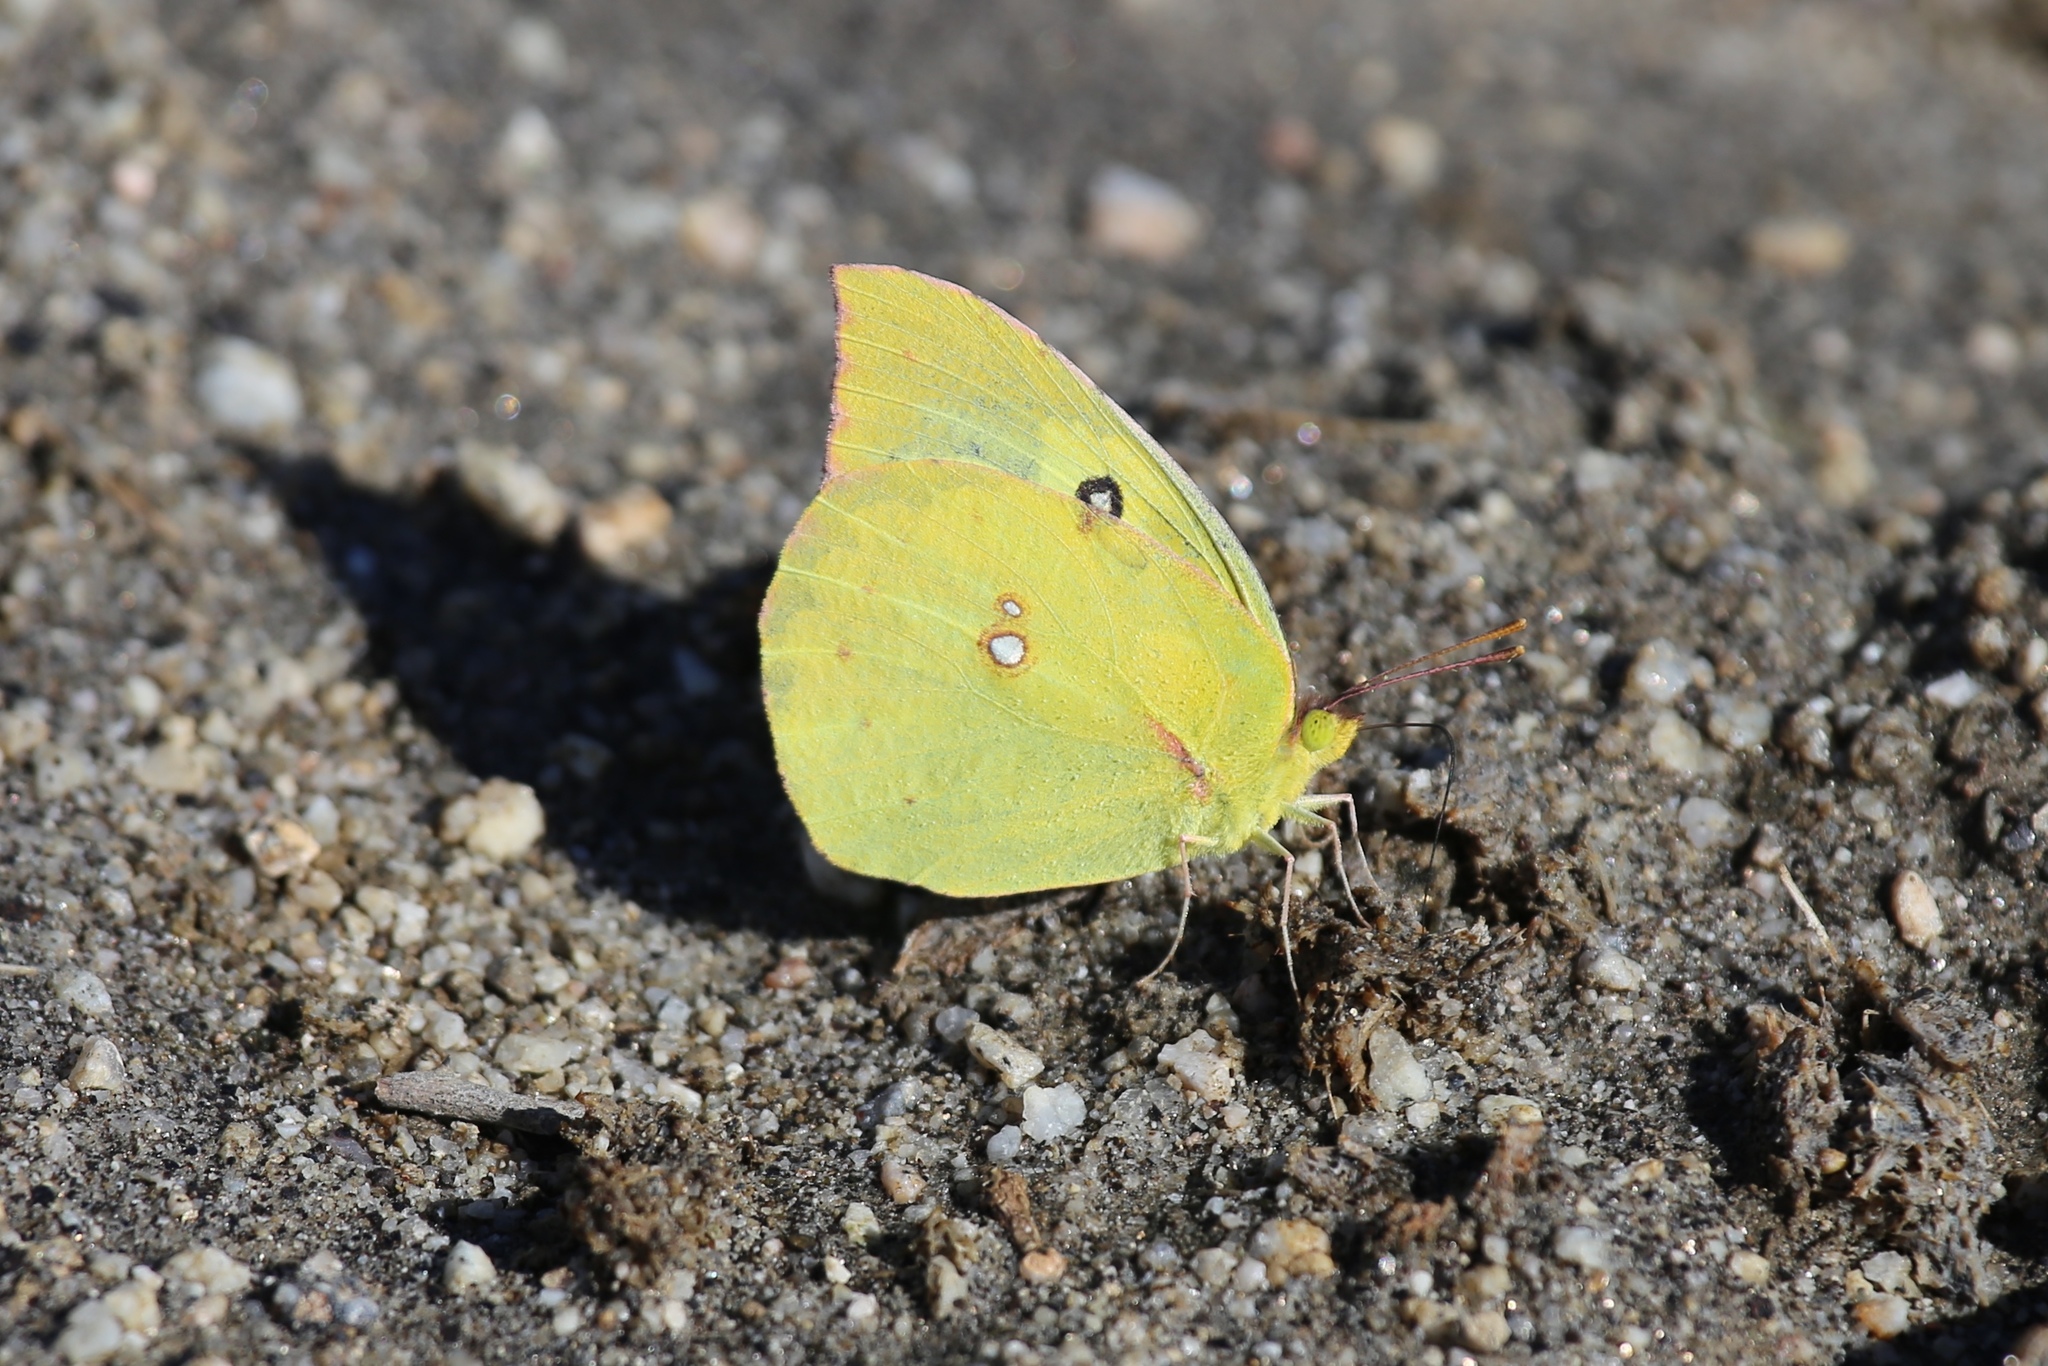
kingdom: Animalia
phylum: Arthropoda
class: Insecta
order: Lepidoptera
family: Pieridae
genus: Zerene
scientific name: Zerene cesonia
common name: Southern dogface
